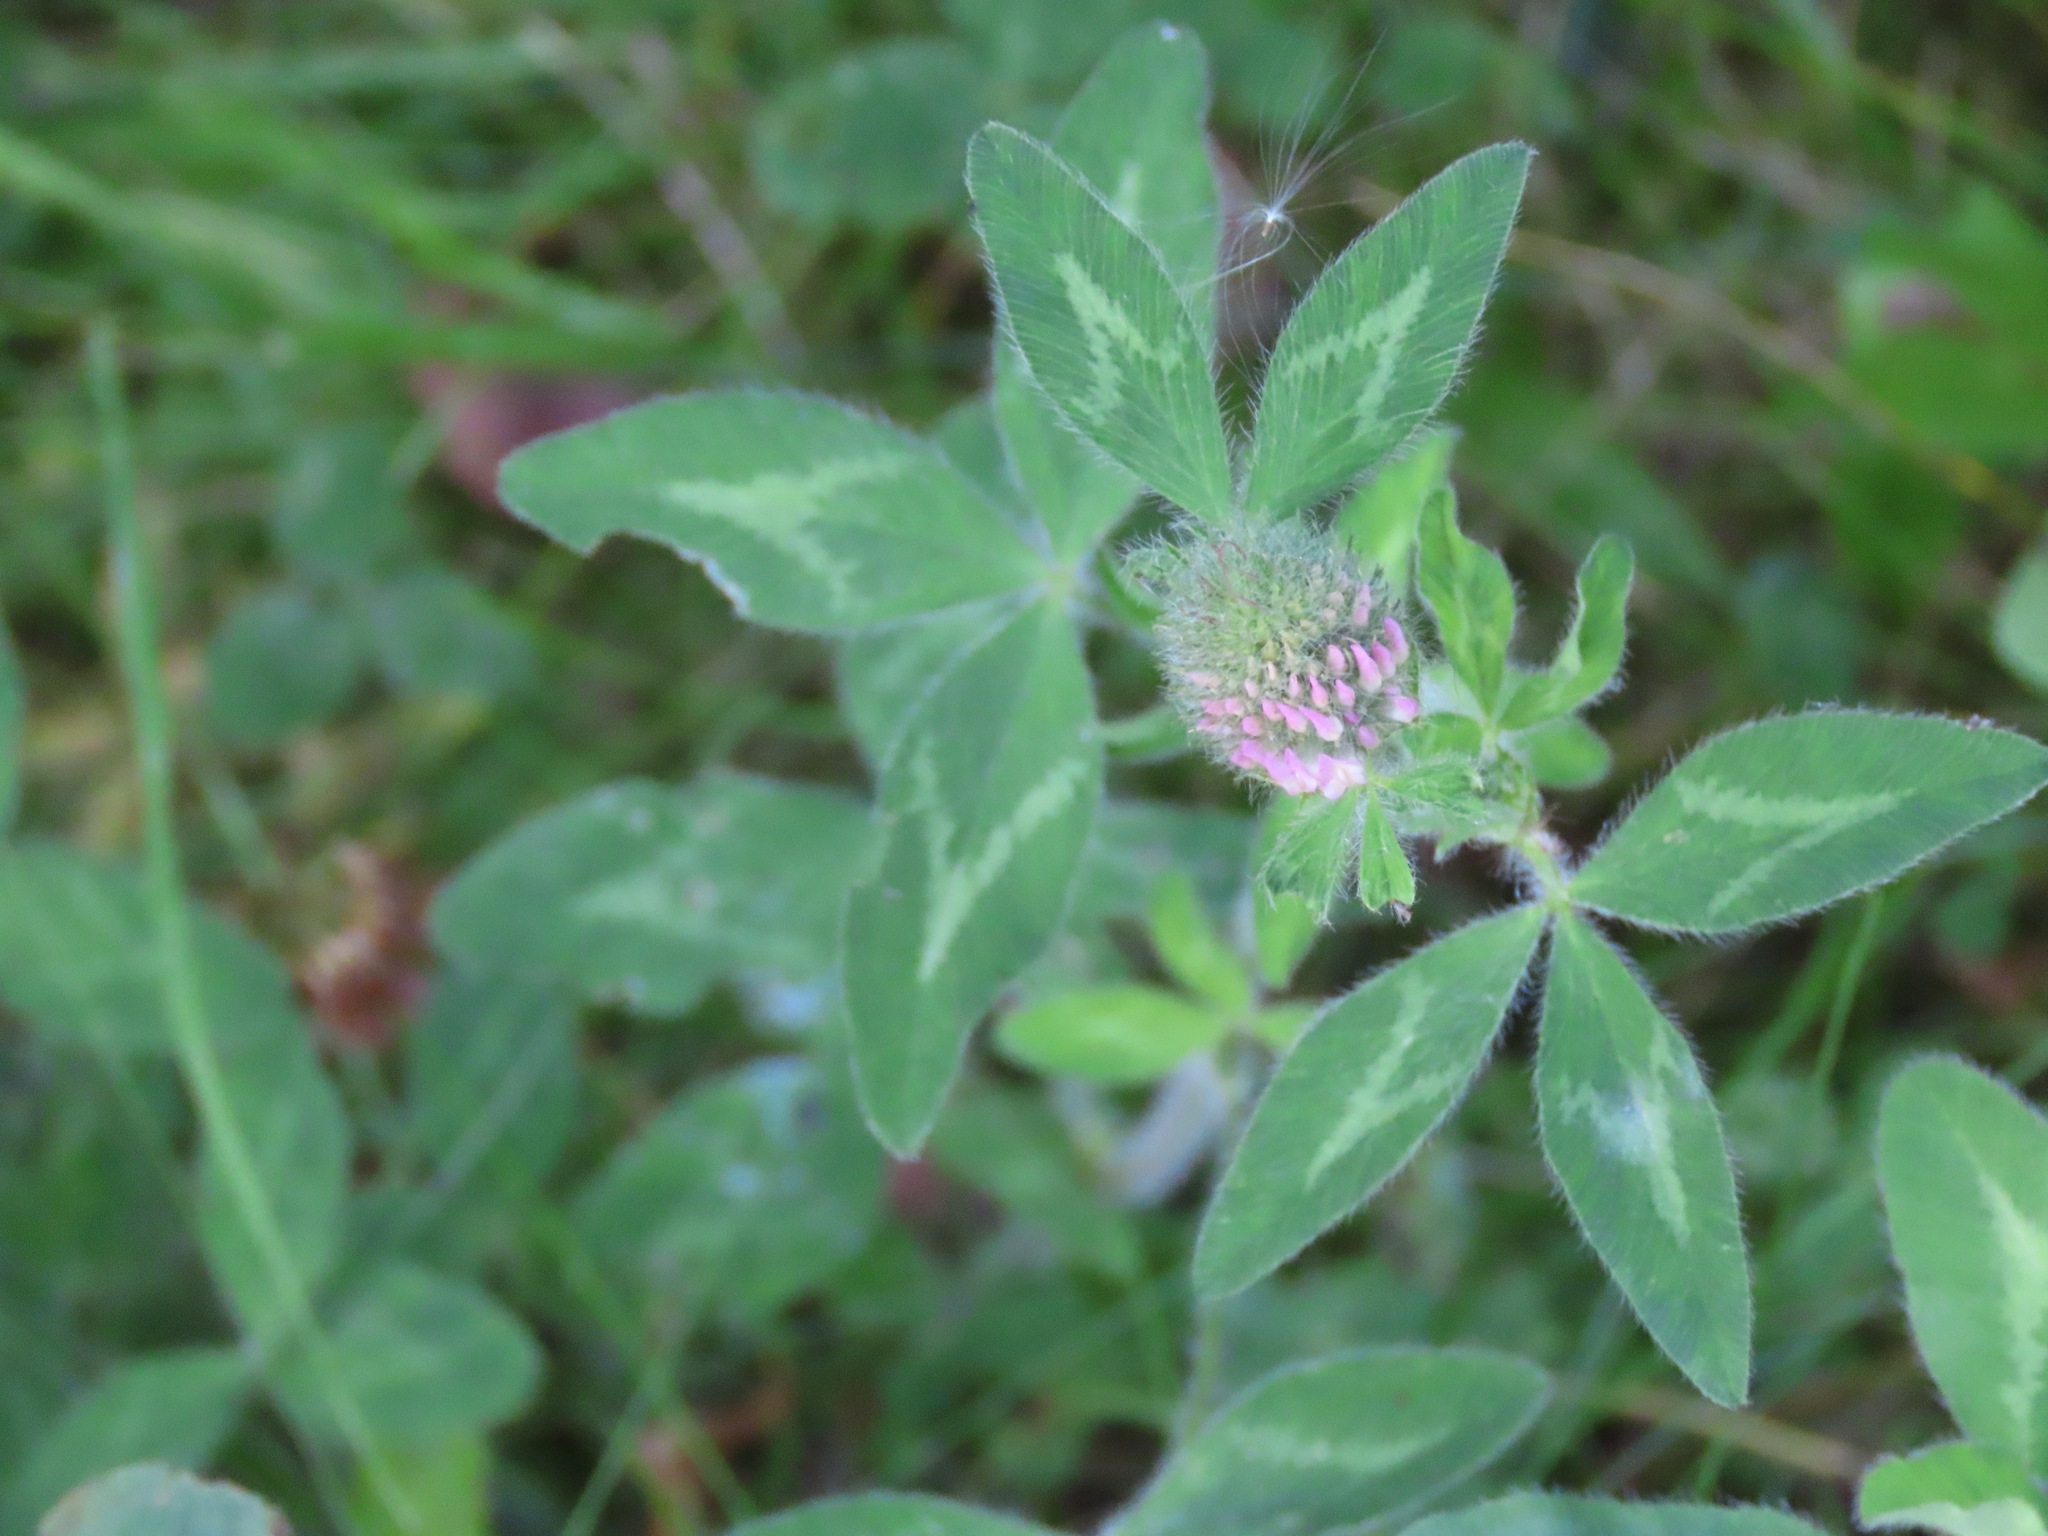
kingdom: Plantae
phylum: Tracheophyta
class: Magnoliopsida
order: Fabales
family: Fabaceae
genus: Trifolium
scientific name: Trifolium pratense
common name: Red clover
